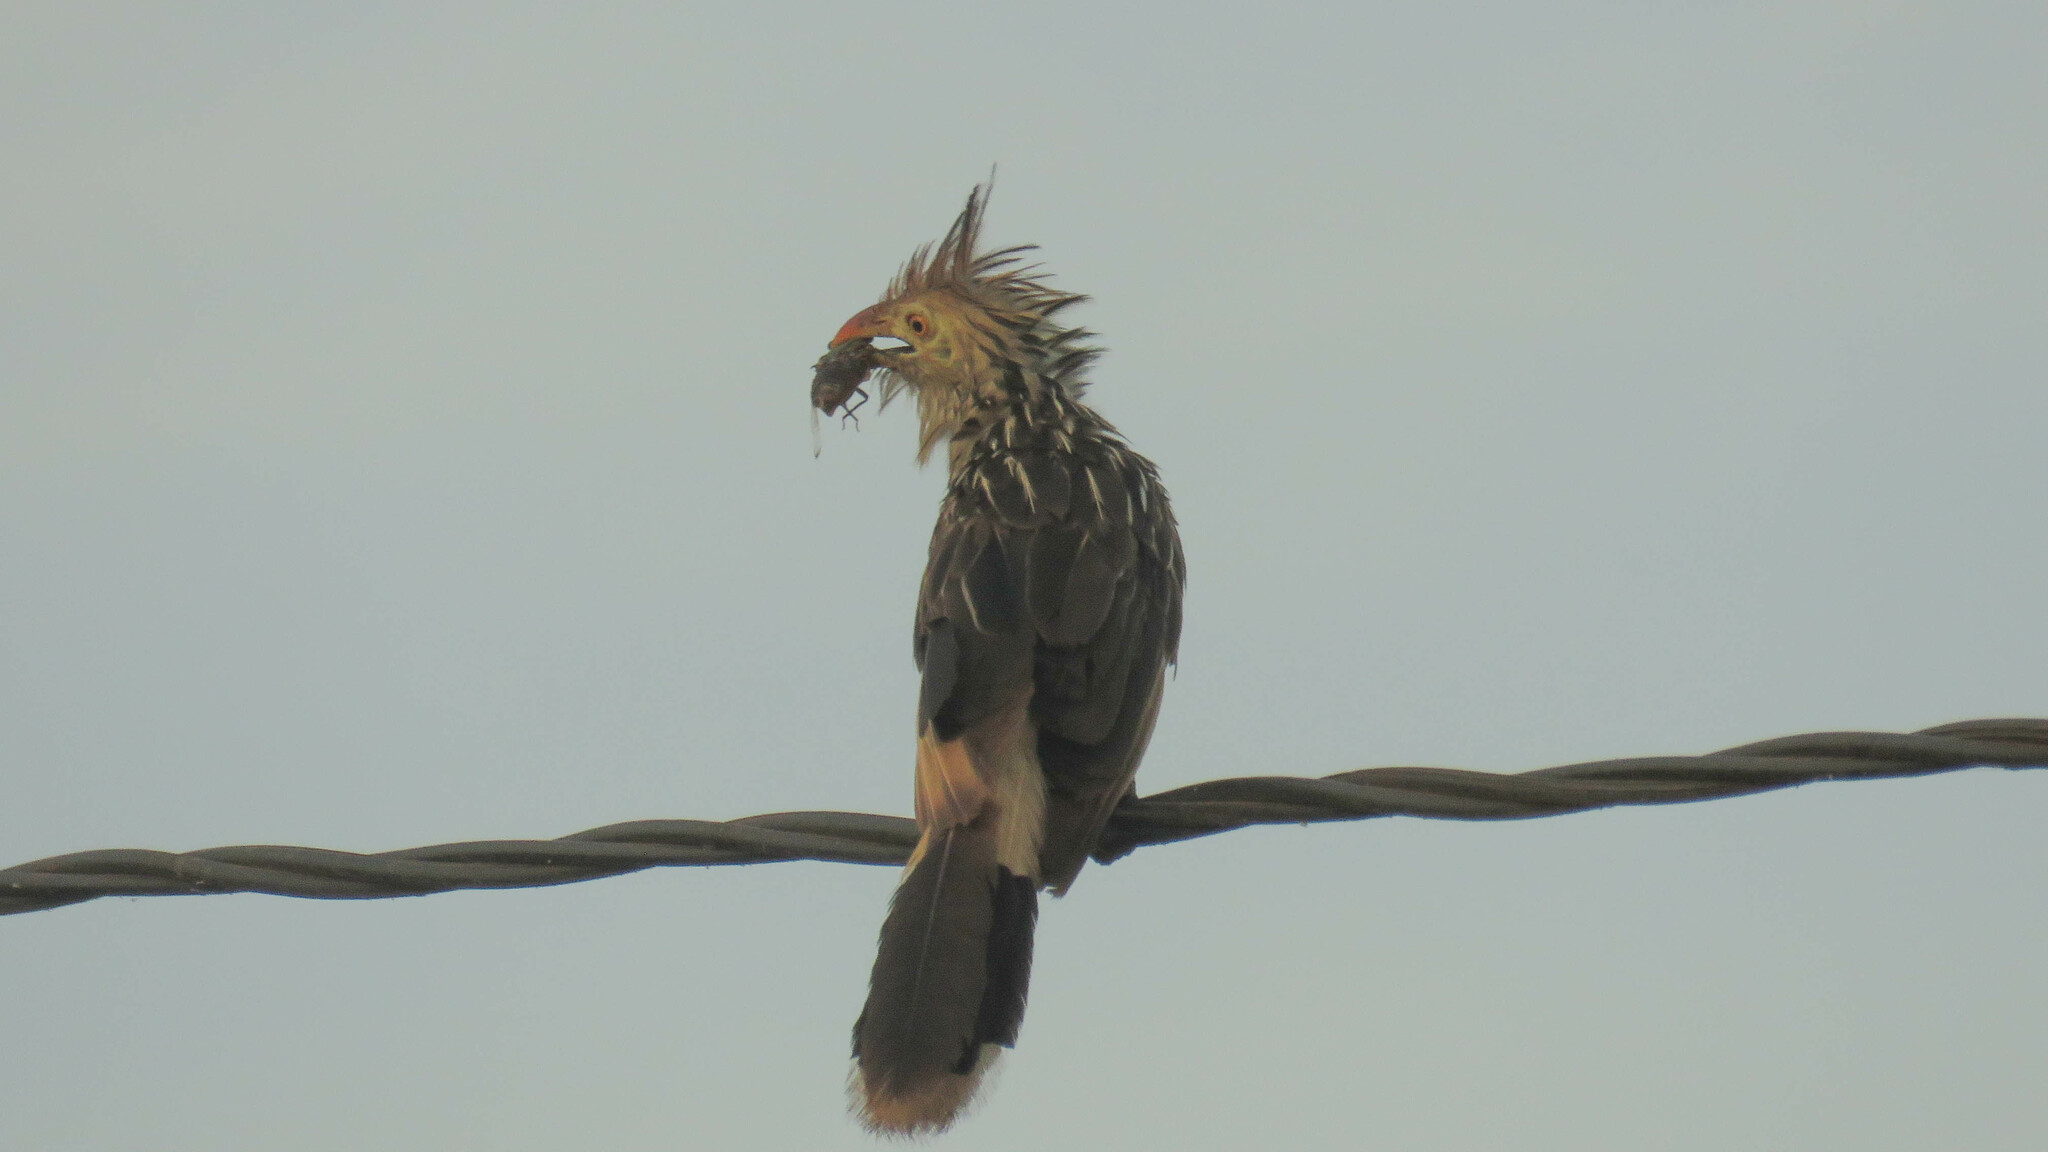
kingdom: Animalia
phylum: Chordata
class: Aves
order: Cuculiformes
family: Cuculidae
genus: Guira
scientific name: Guira guira
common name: Guira cuckoo
